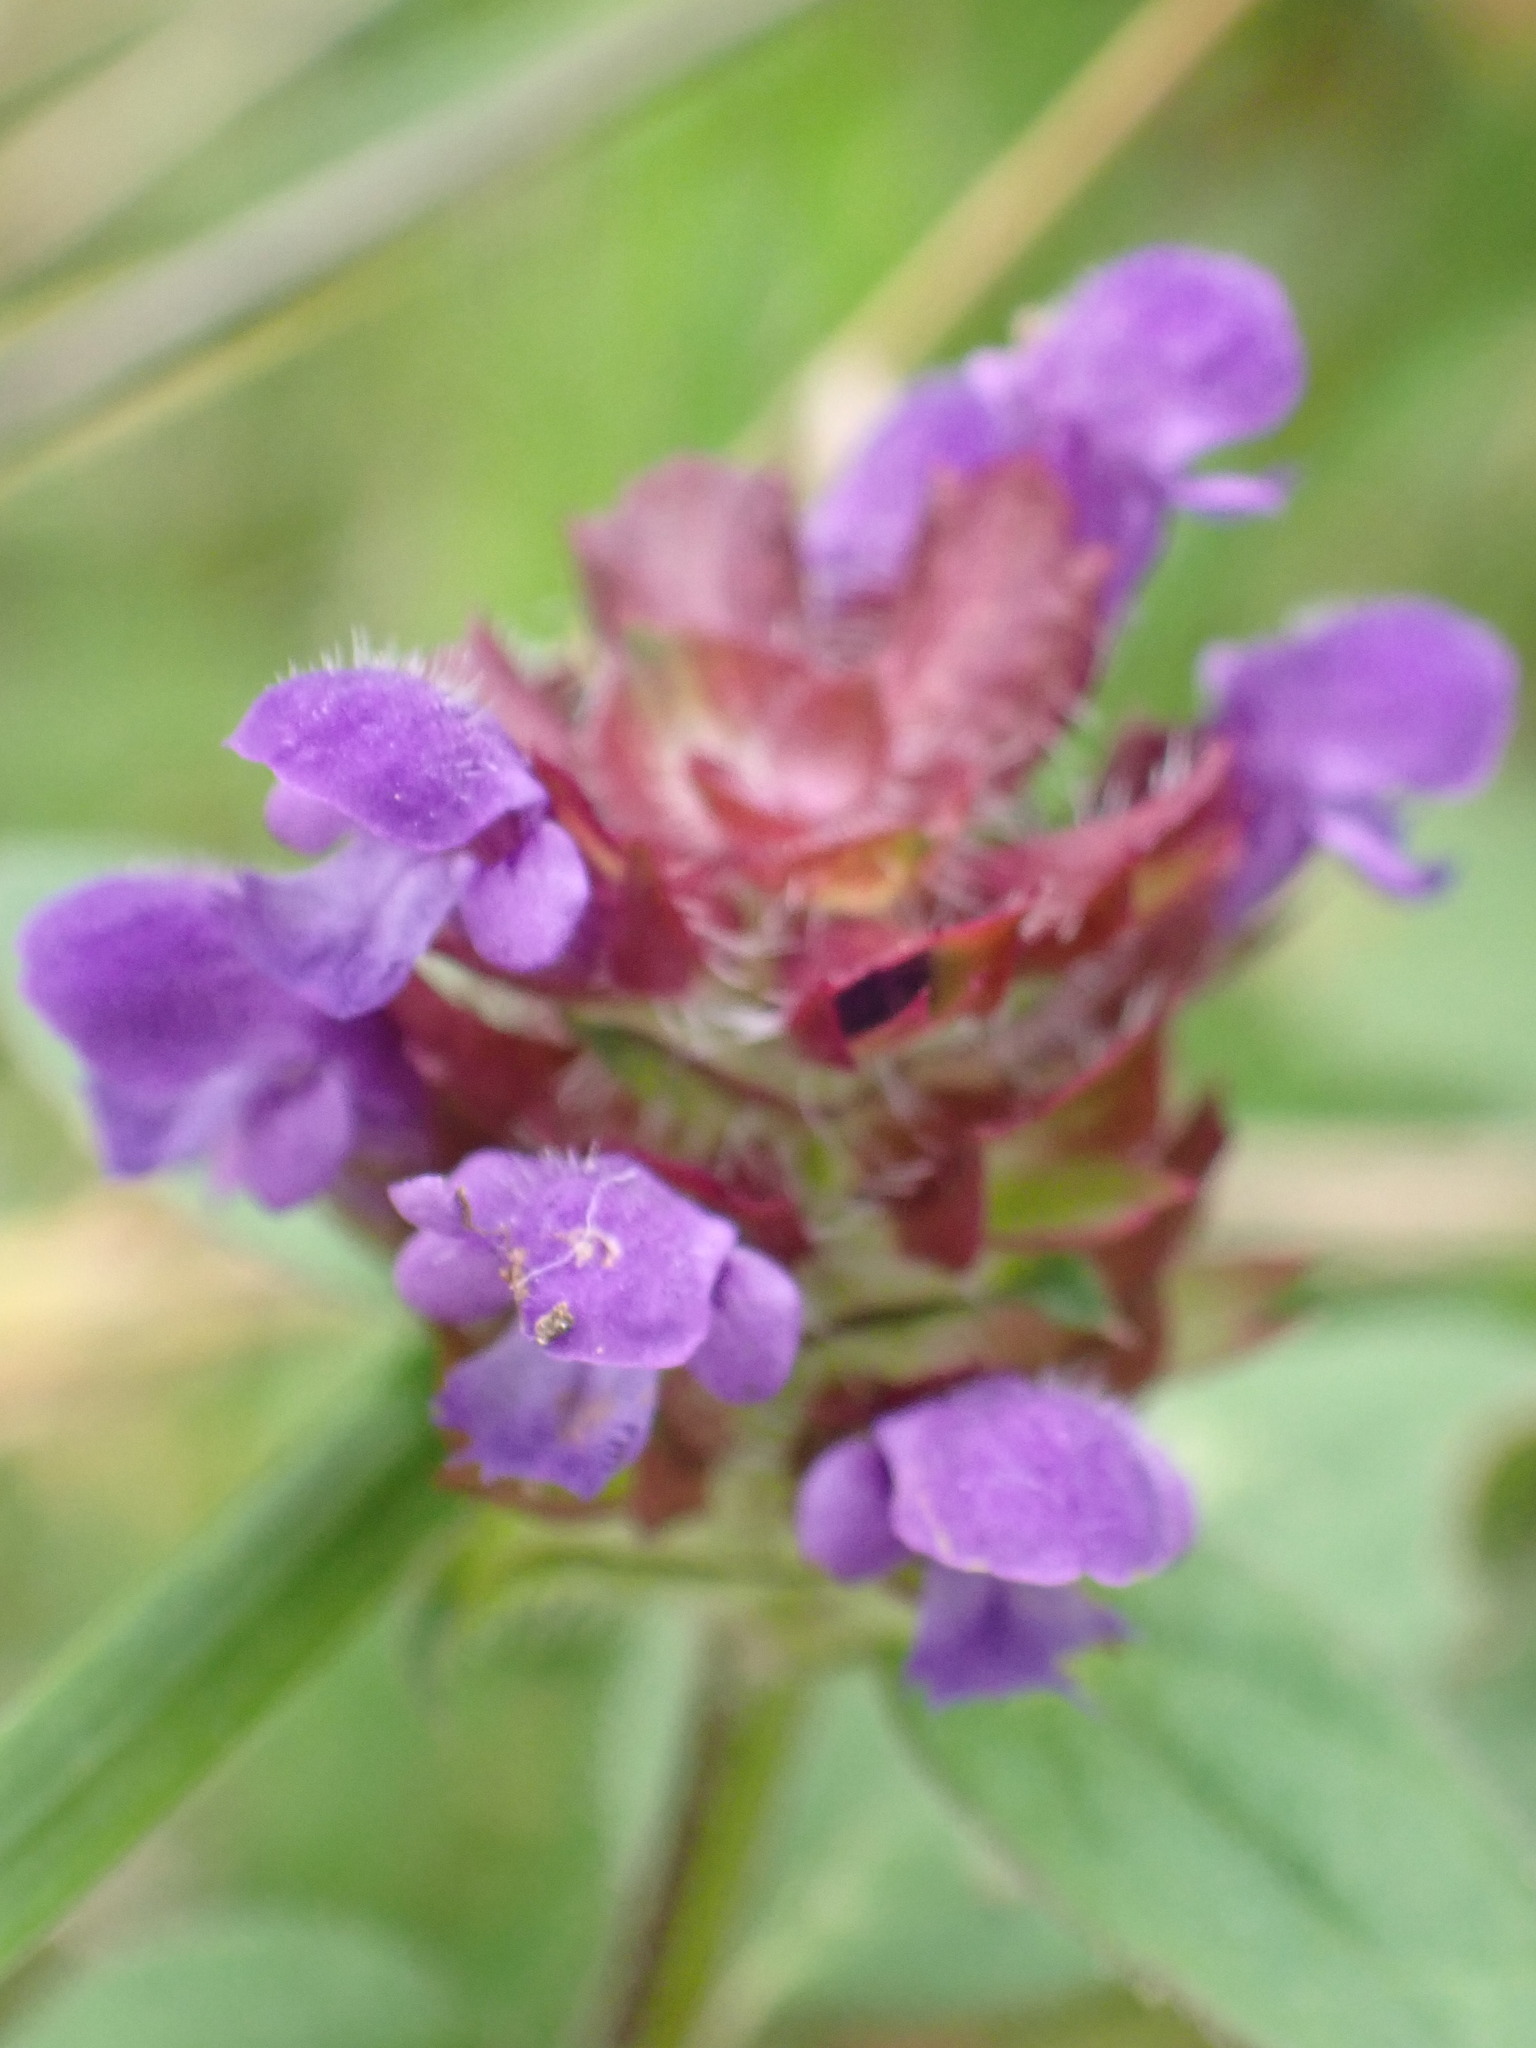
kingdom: Plantae
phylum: Tracheophyta
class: Magnoliopsida
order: Lamiales
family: Lamiaceae
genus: Prunella
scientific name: Prunella vulgaris
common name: Heal-all
